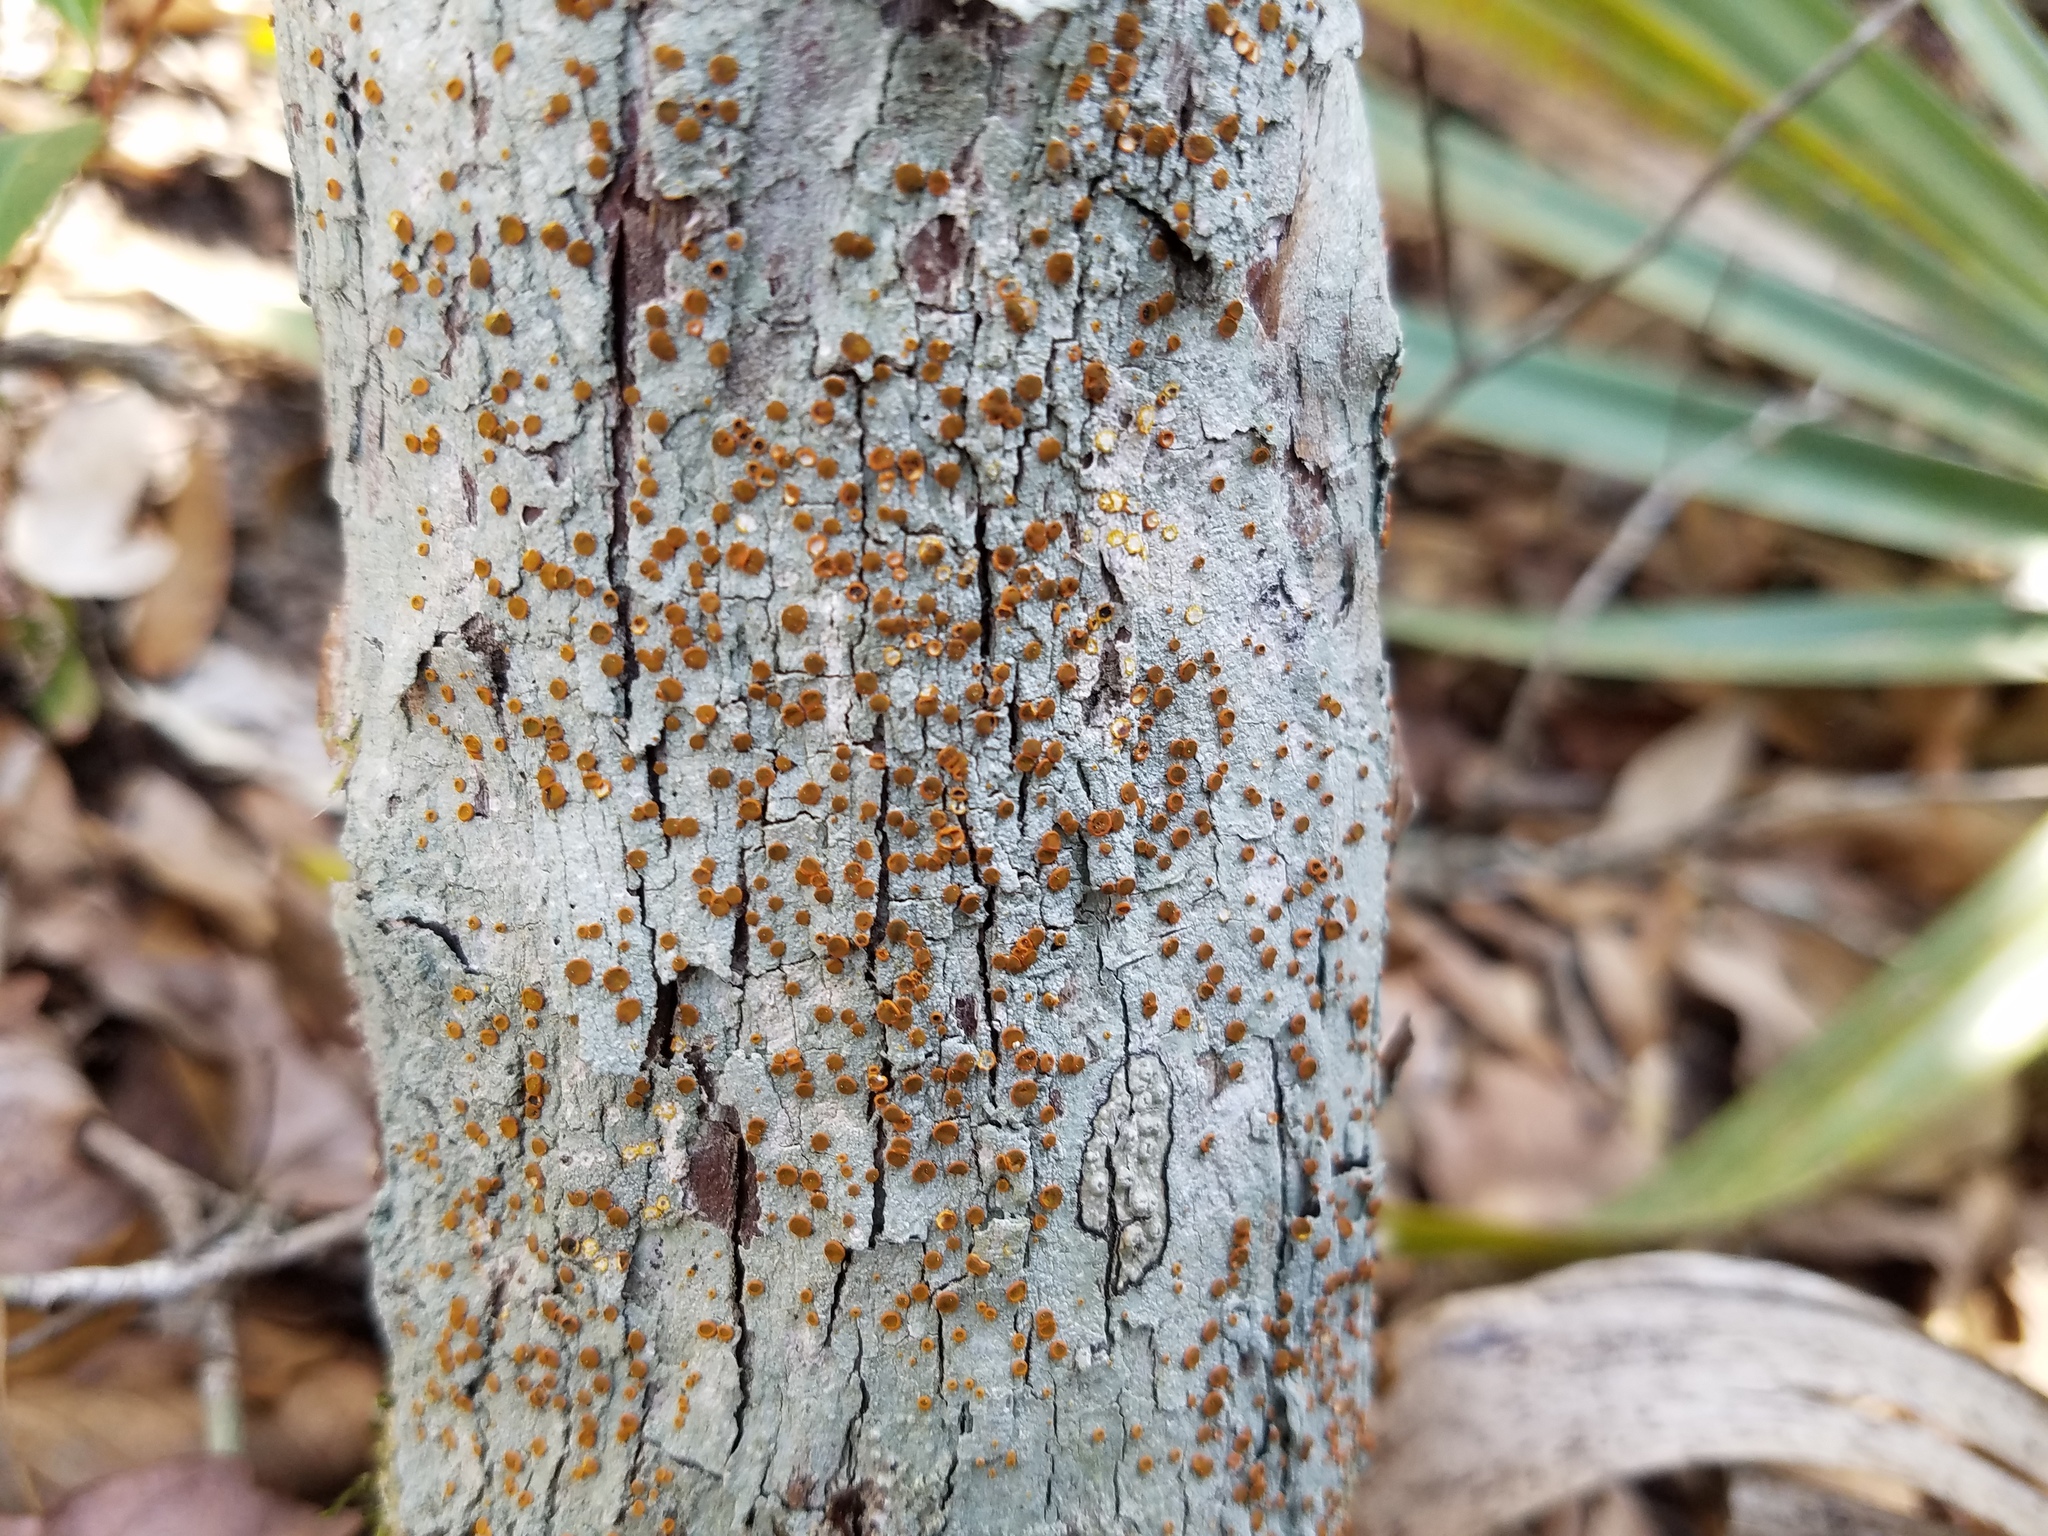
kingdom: Fungi
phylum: Ascomycota
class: Lecanoromycetes
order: Teloschistales
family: Brigantiaeaceae
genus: Brigantiaea
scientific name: Brigantiaea leucoxantha
